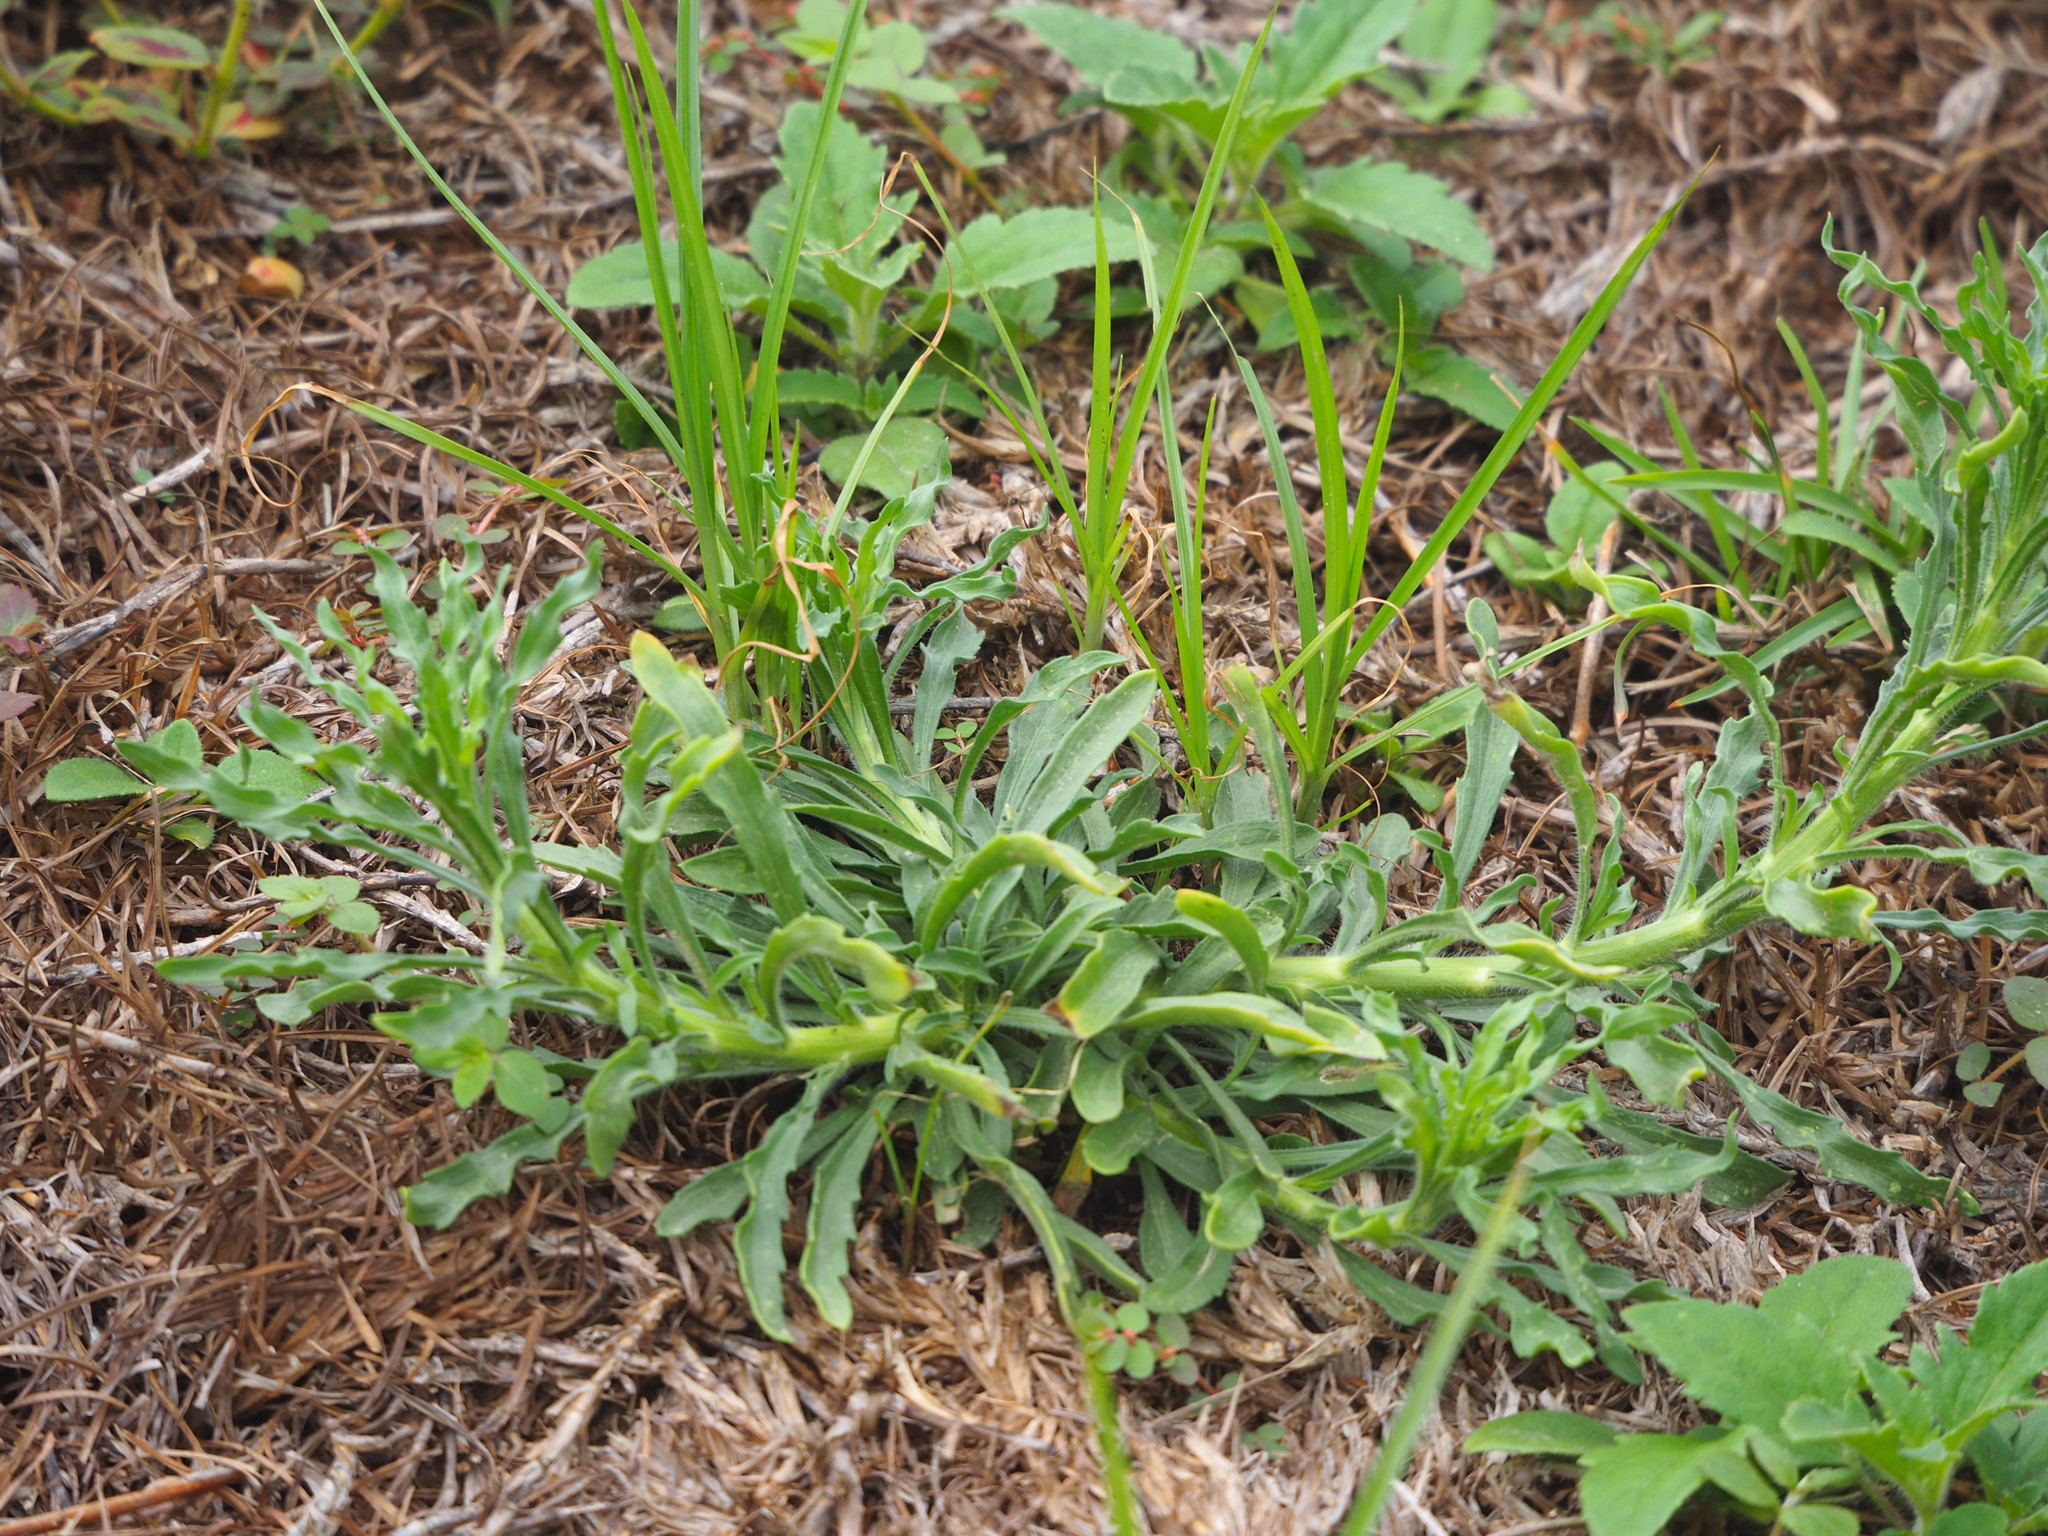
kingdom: Plantae
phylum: Tracheophyta
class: Magnoliopsida
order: Myrtales
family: Onagraceae
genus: Oenothera
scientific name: Oenothera laciniata
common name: Cut-leaved evening-primrose
